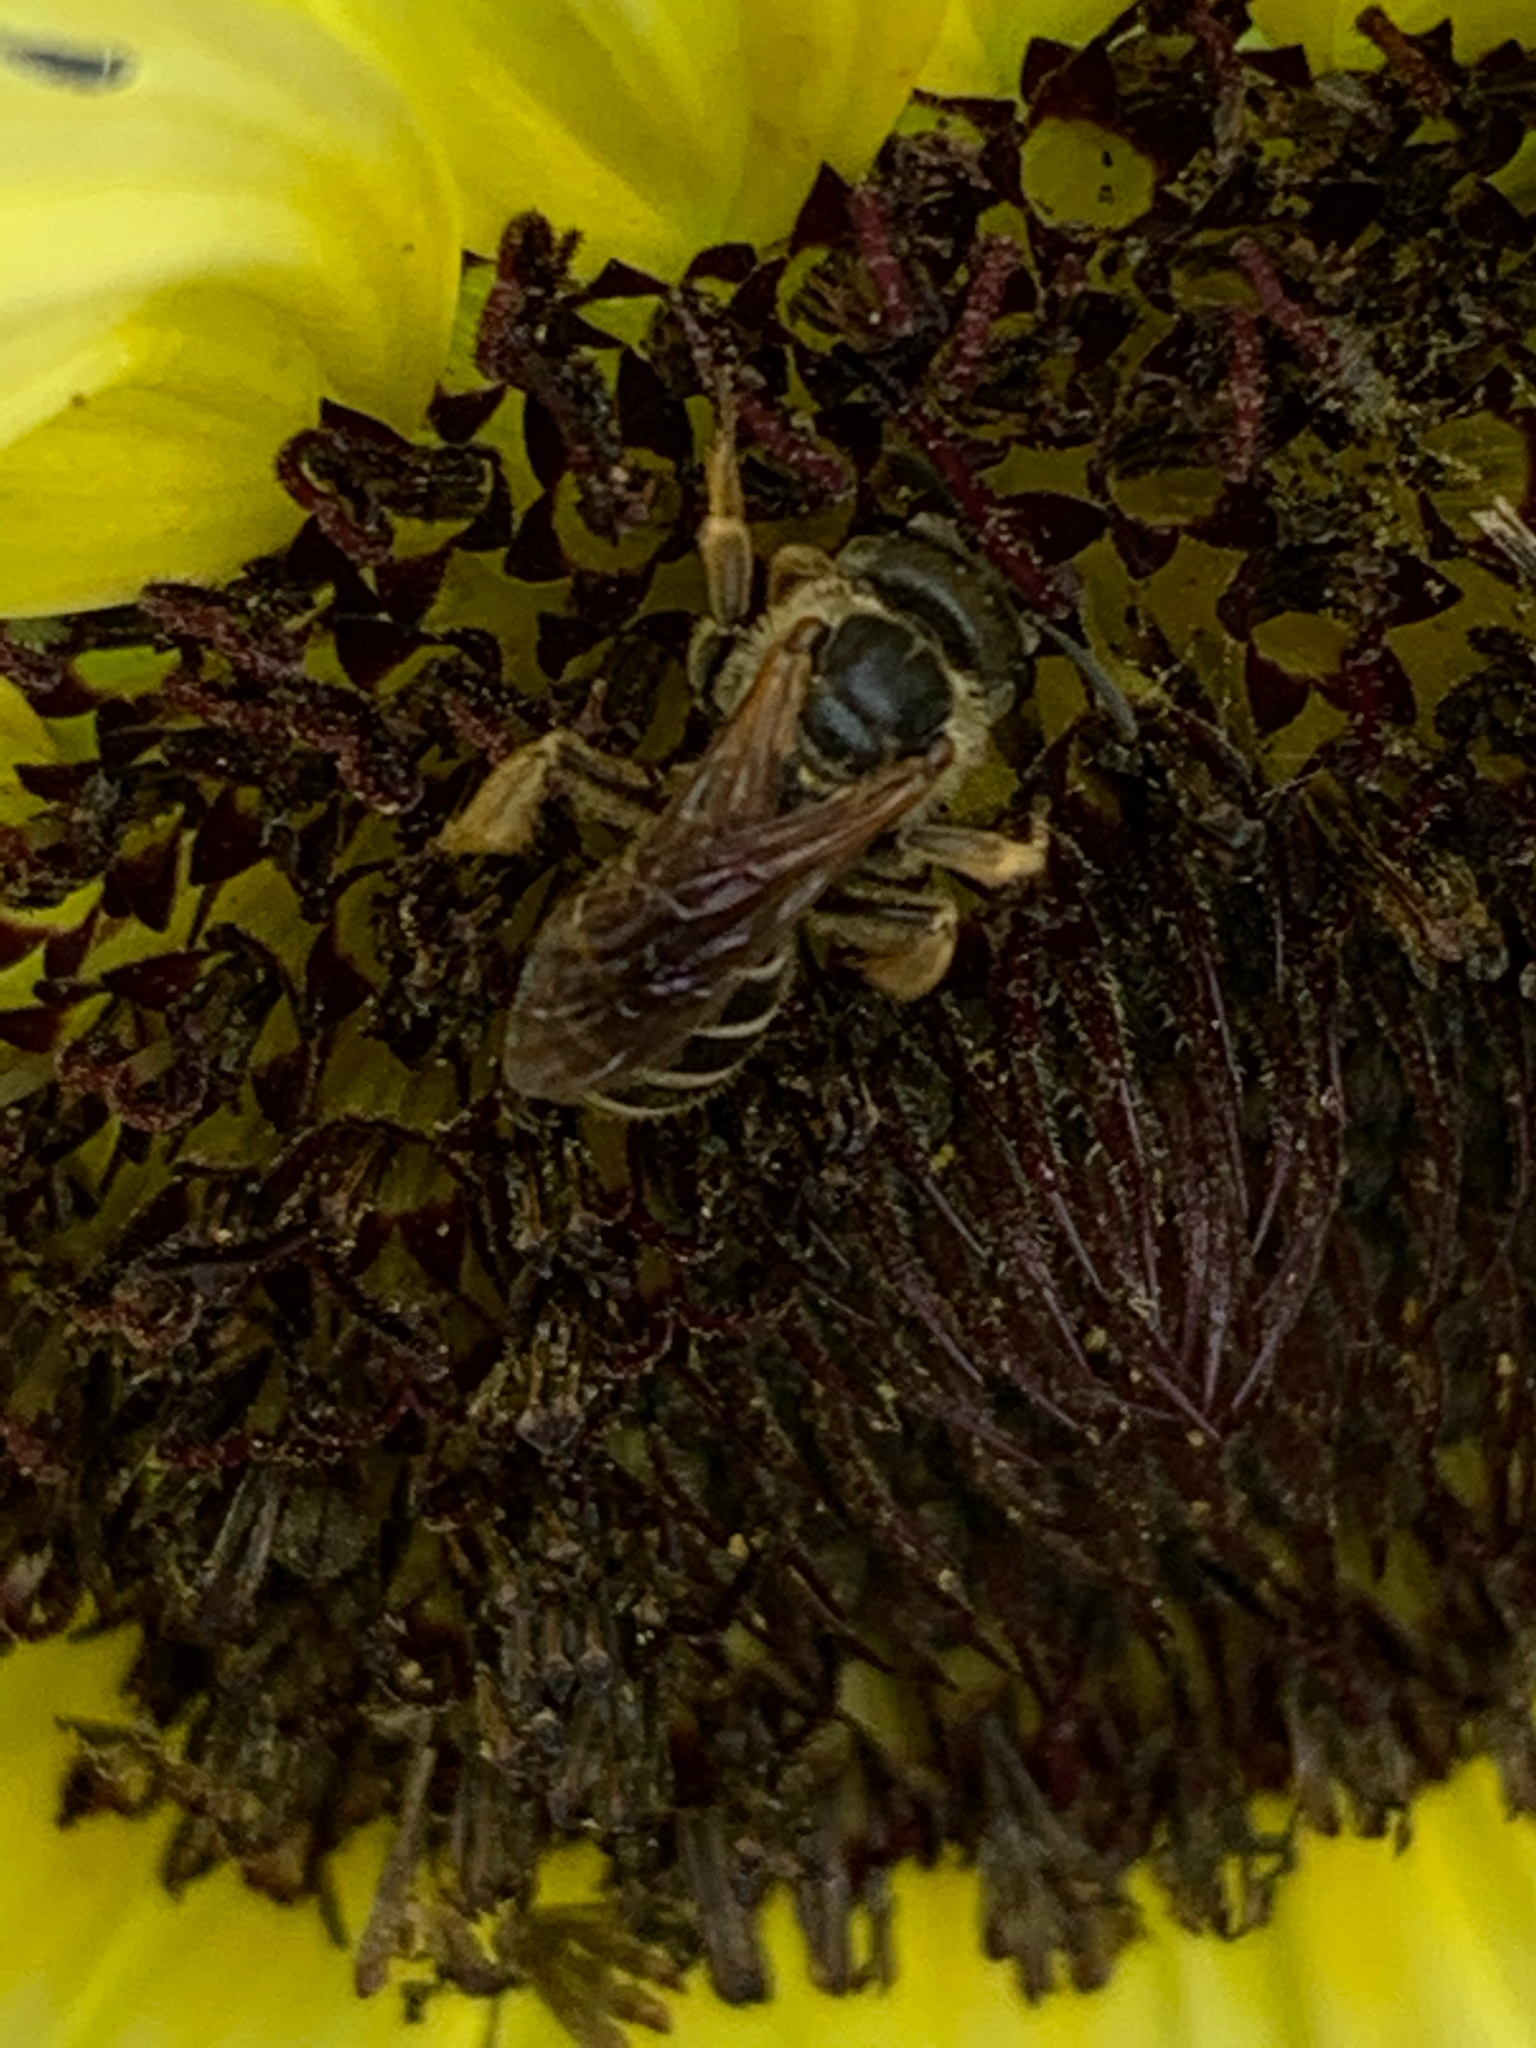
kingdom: Animalia
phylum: Arthropoda
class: Insecta
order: Hymenoptera
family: Halictidae
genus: Halictus
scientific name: Halictus
